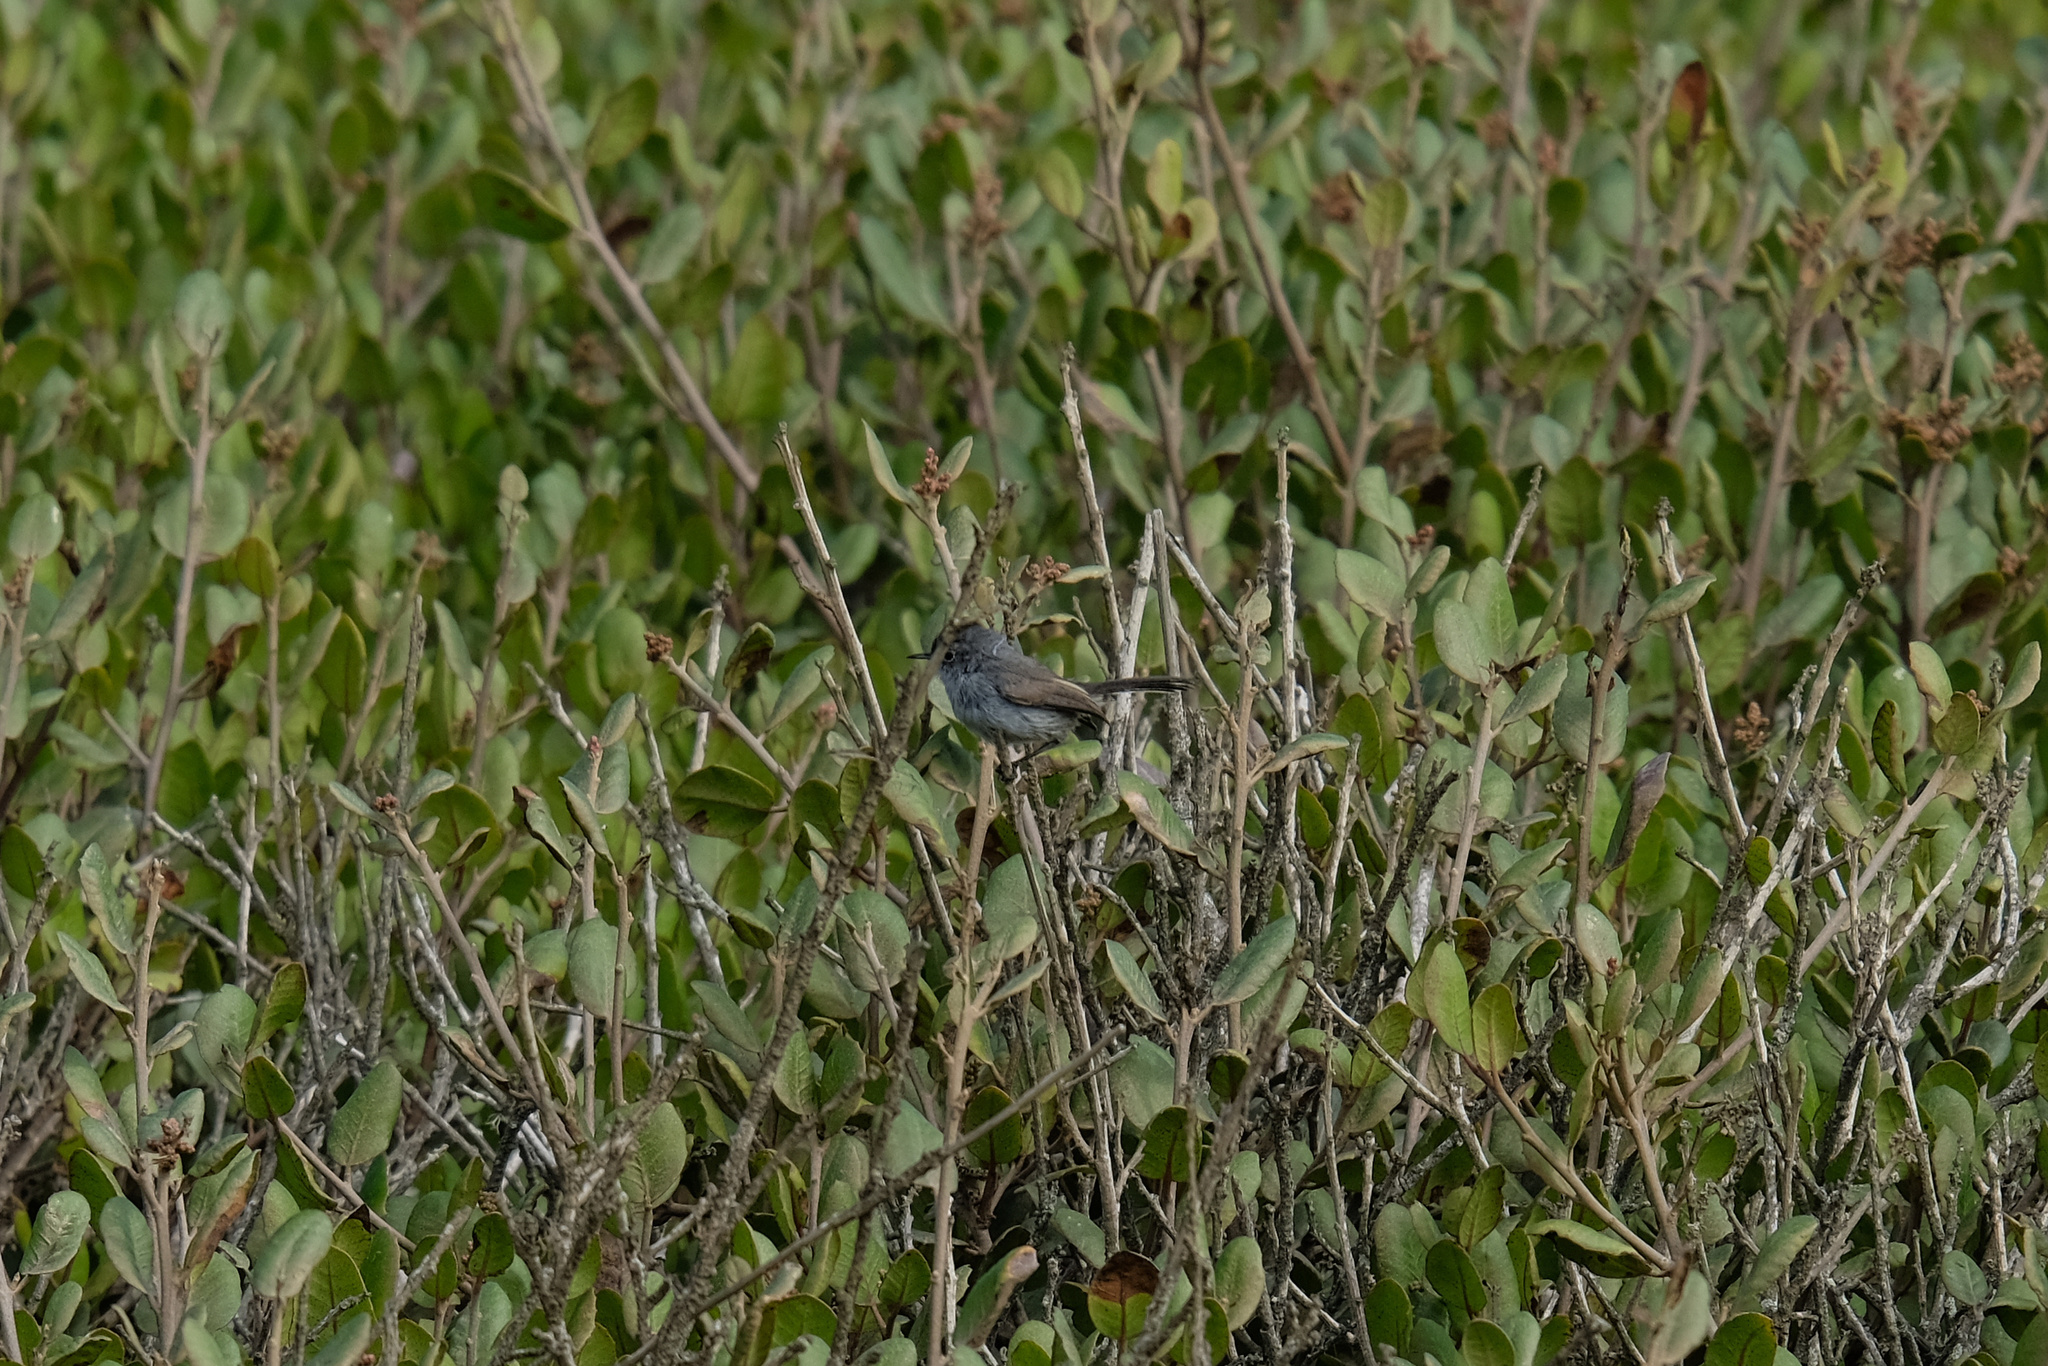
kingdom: Animalia
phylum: Chordata
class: Aves
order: Passeriformes
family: Polioptilidae
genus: Polioptila
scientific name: Polioptila caerulea
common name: Blue-gray gnatcatcher
